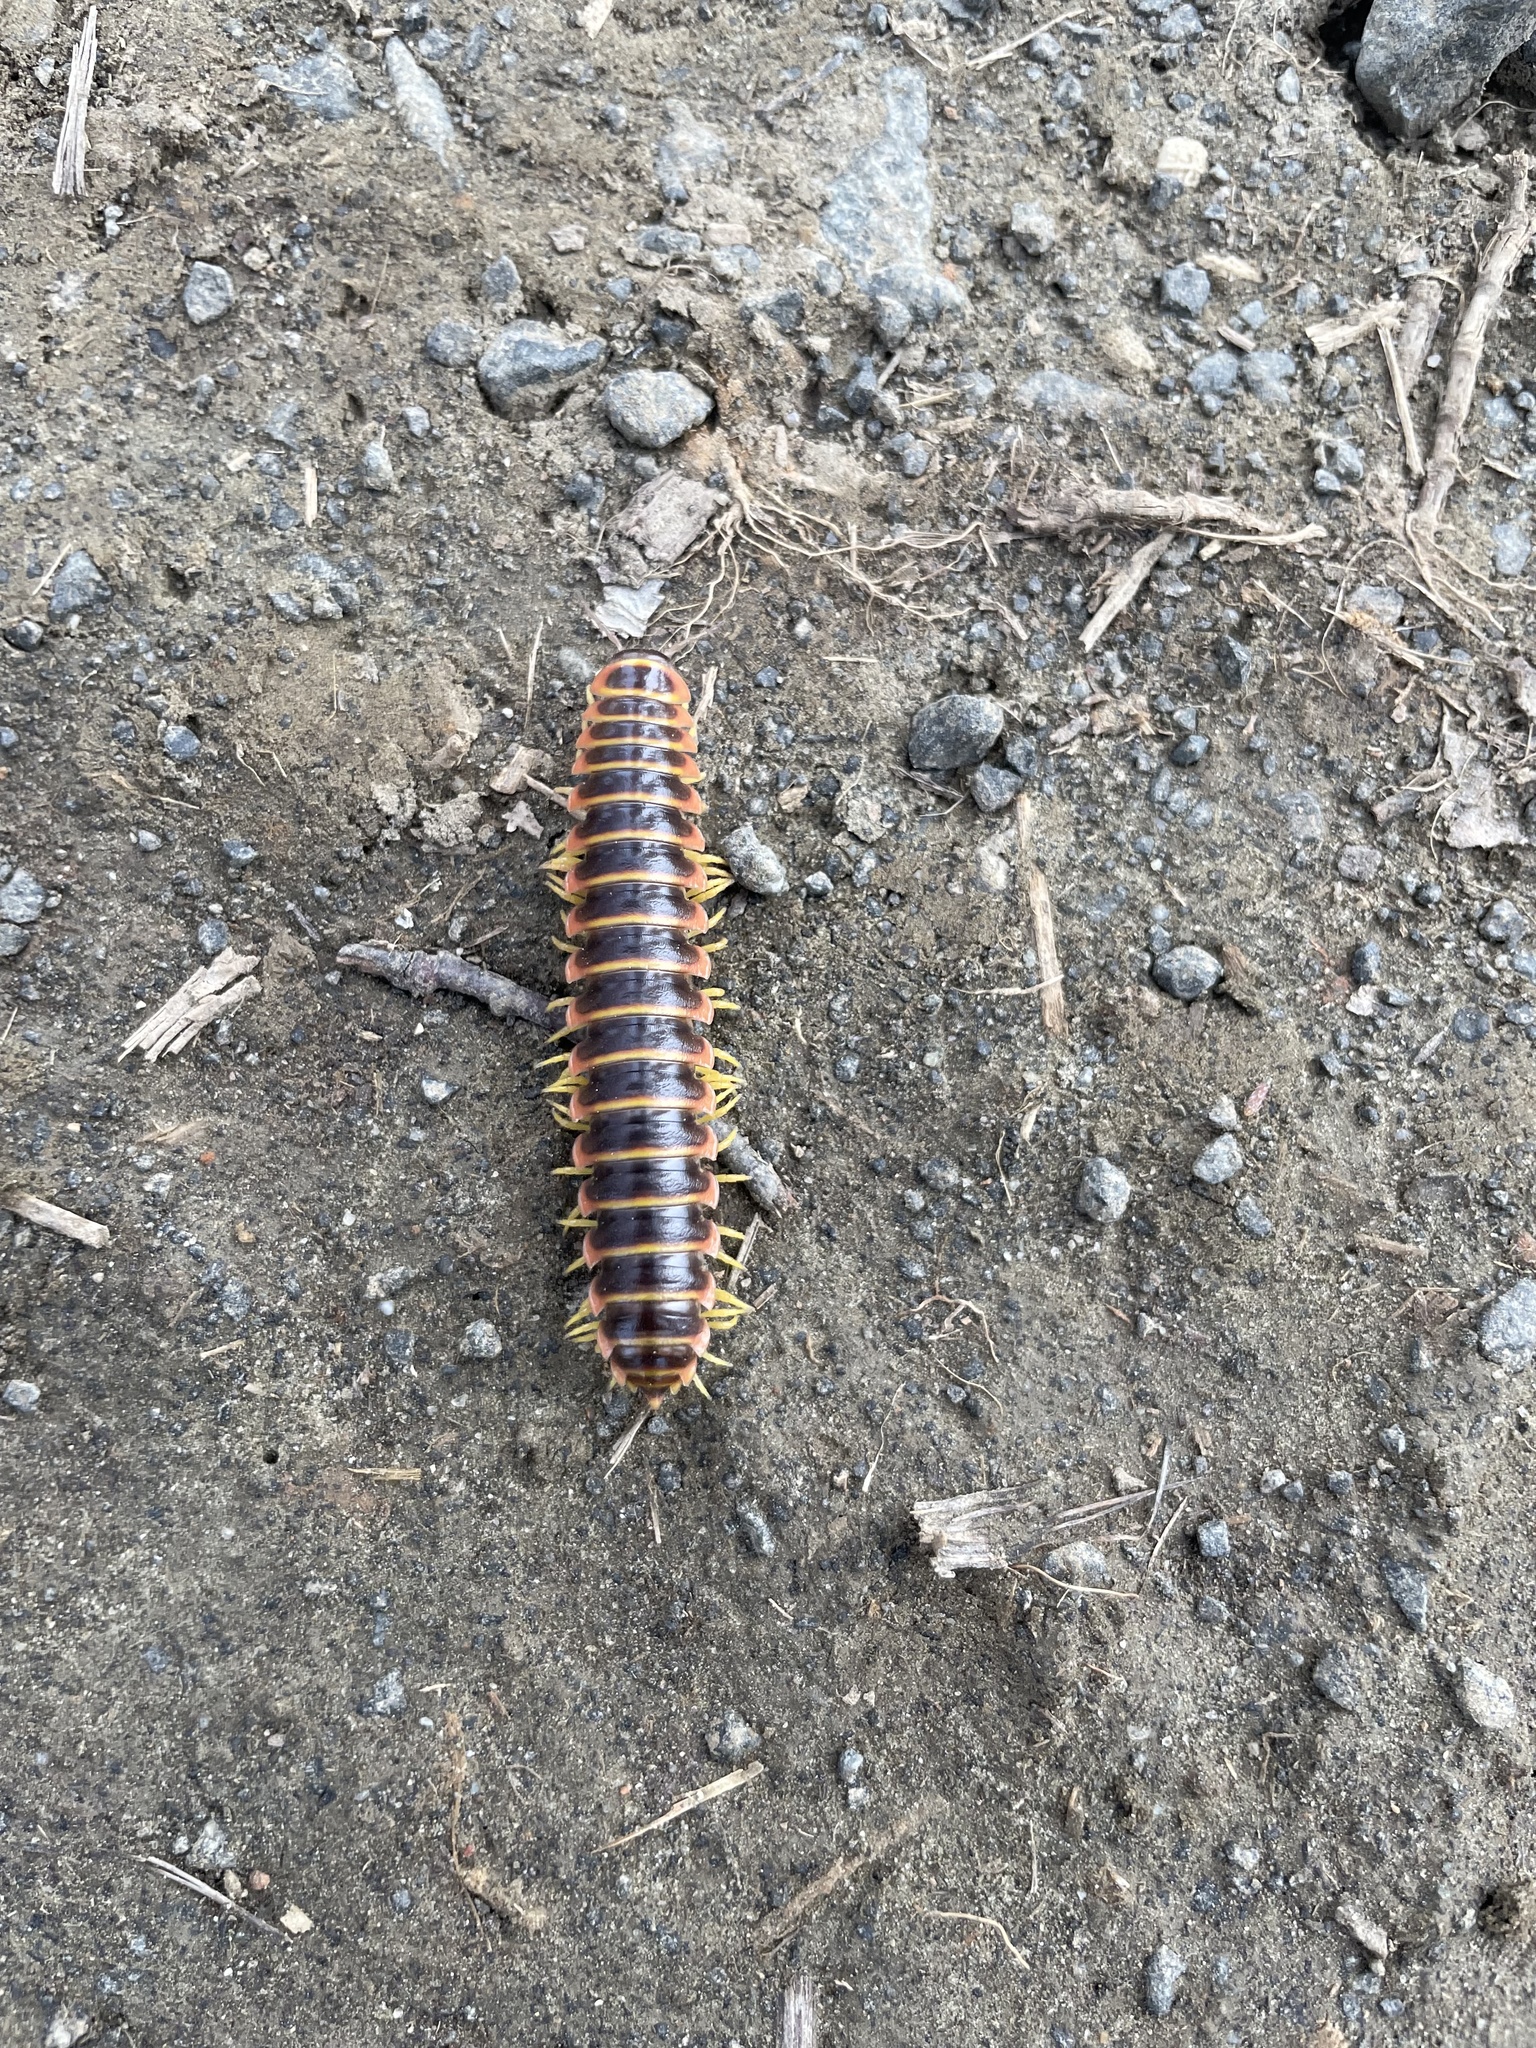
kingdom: Animalia
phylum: Arthropoda
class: Diplopoda
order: Polydesmida
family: Xystodesmidae
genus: Apheloria
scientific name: Apheloria virginiensis
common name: Black-and-gold flat millipede
